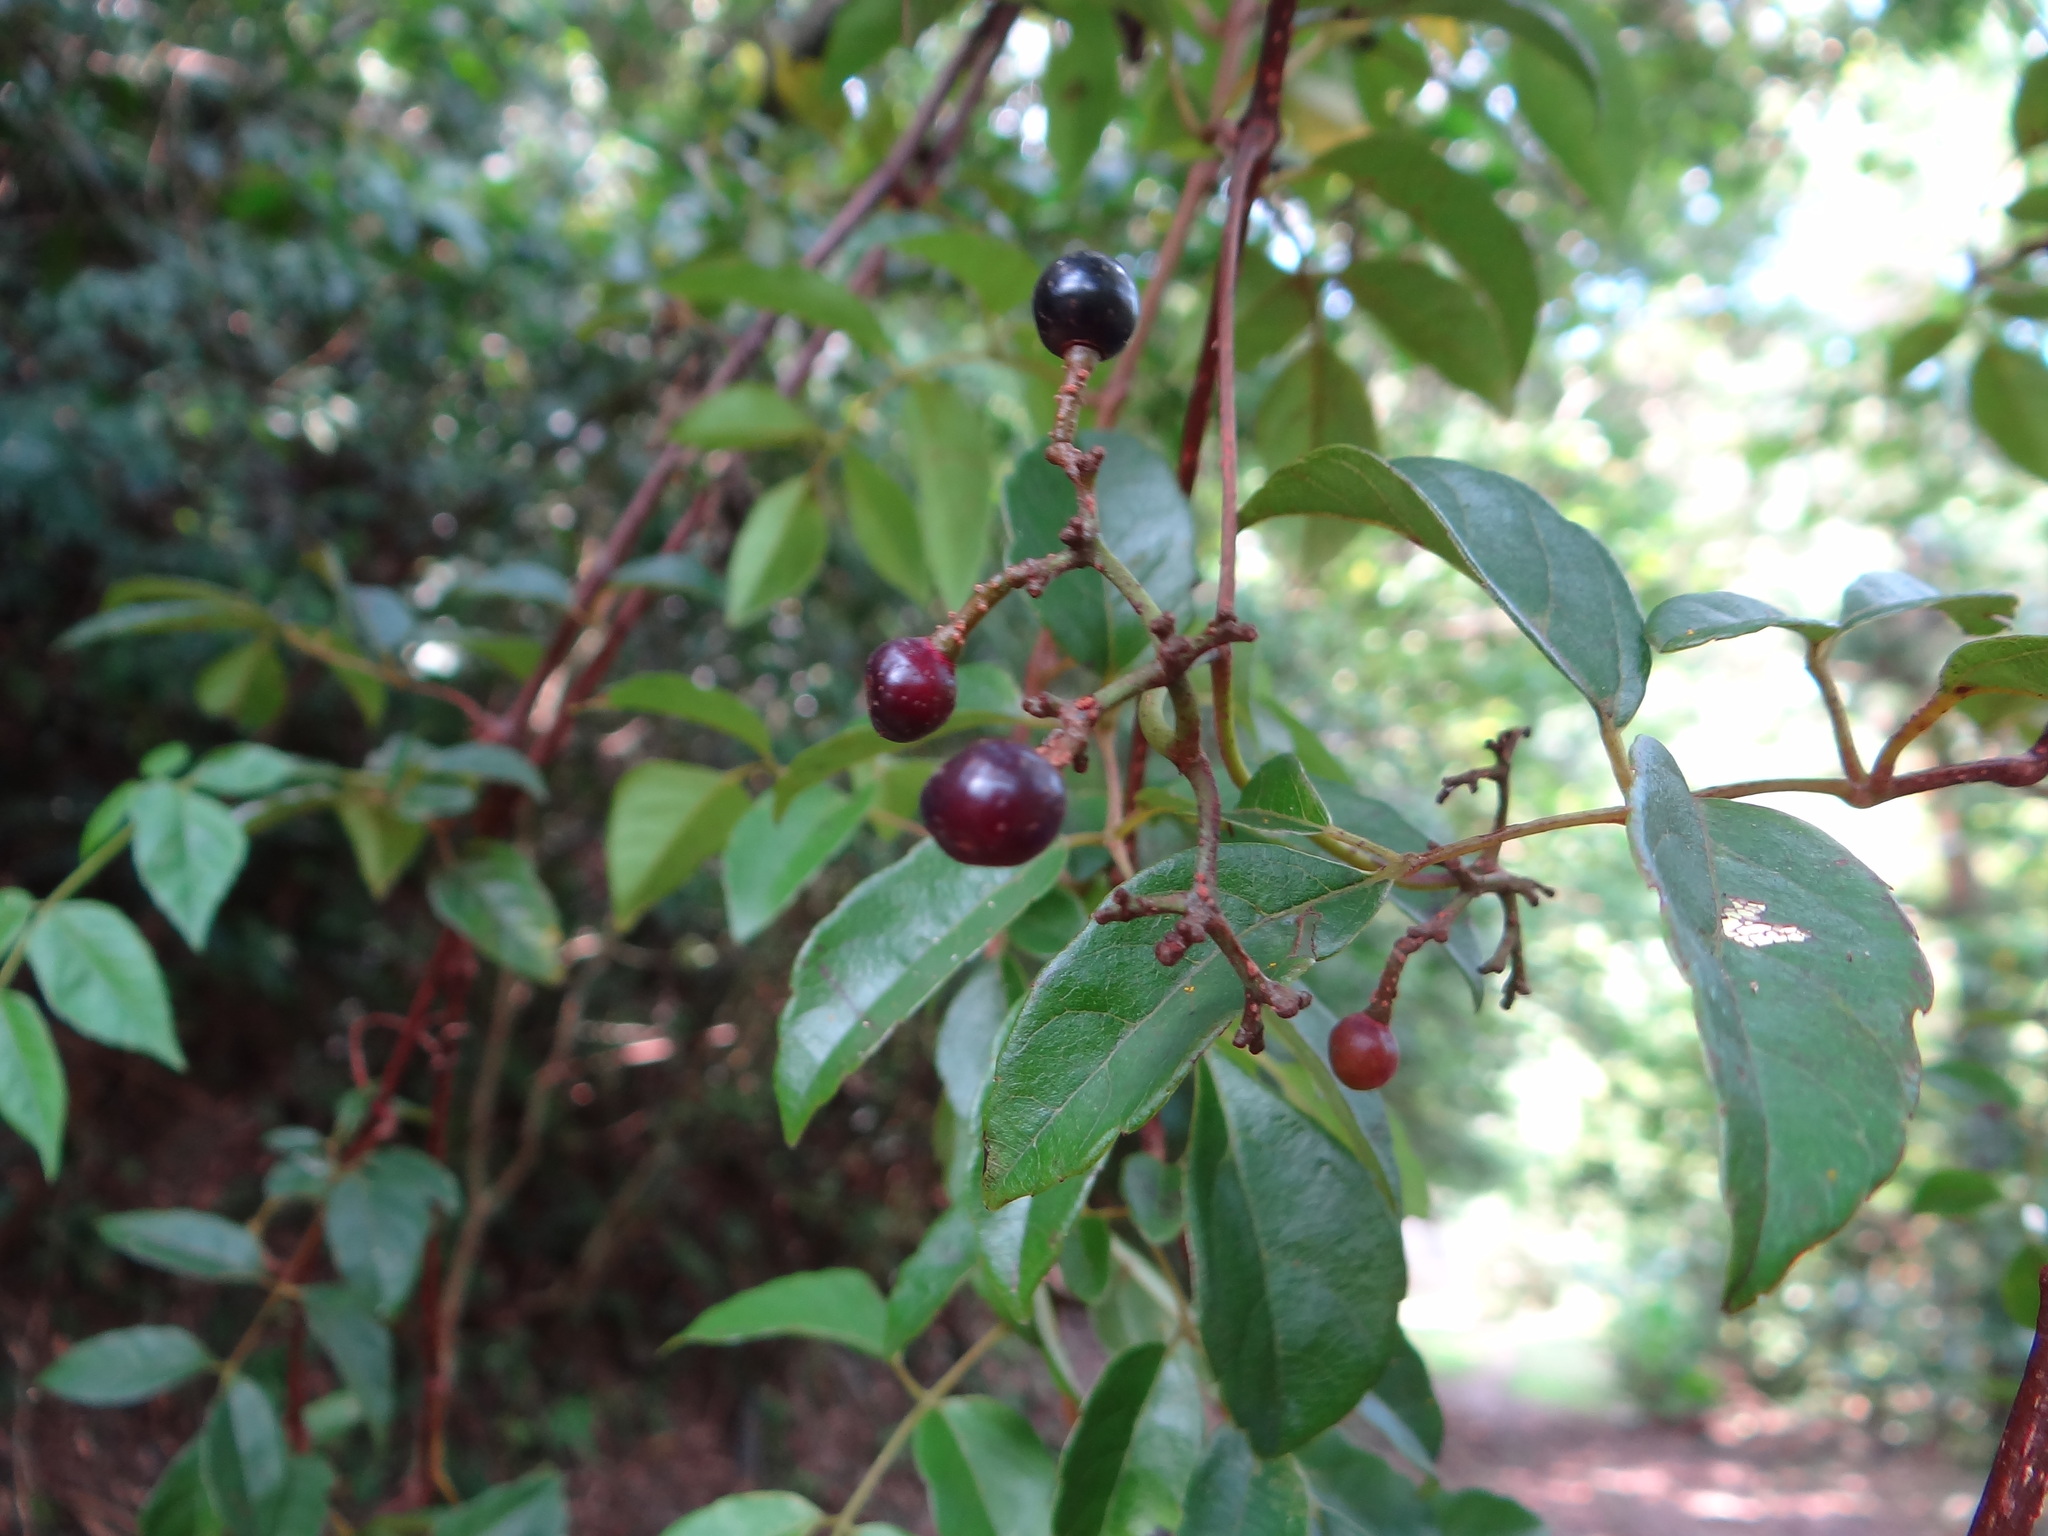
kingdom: Plantae
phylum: Tracheophyta
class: Magnoliopsida
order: Vitales
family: Vitaceae
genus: Nekemias
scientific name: Nekemias cantoniensis
